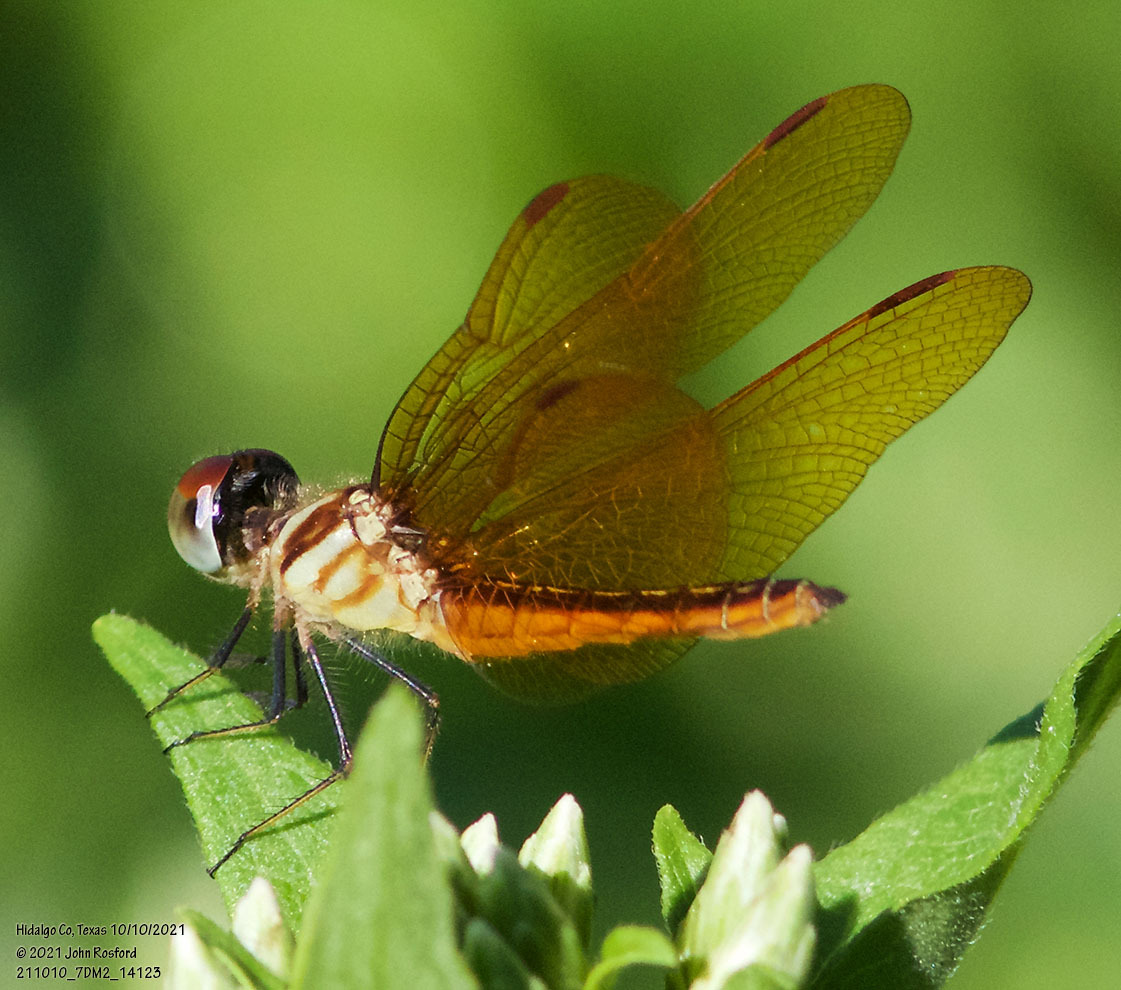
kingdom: Animalia
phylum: Arthropoda
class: Insecta
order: Odonata
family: Libellulidae
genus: Perithemis
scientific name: Perithemis domitia
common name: Slough amberwing
